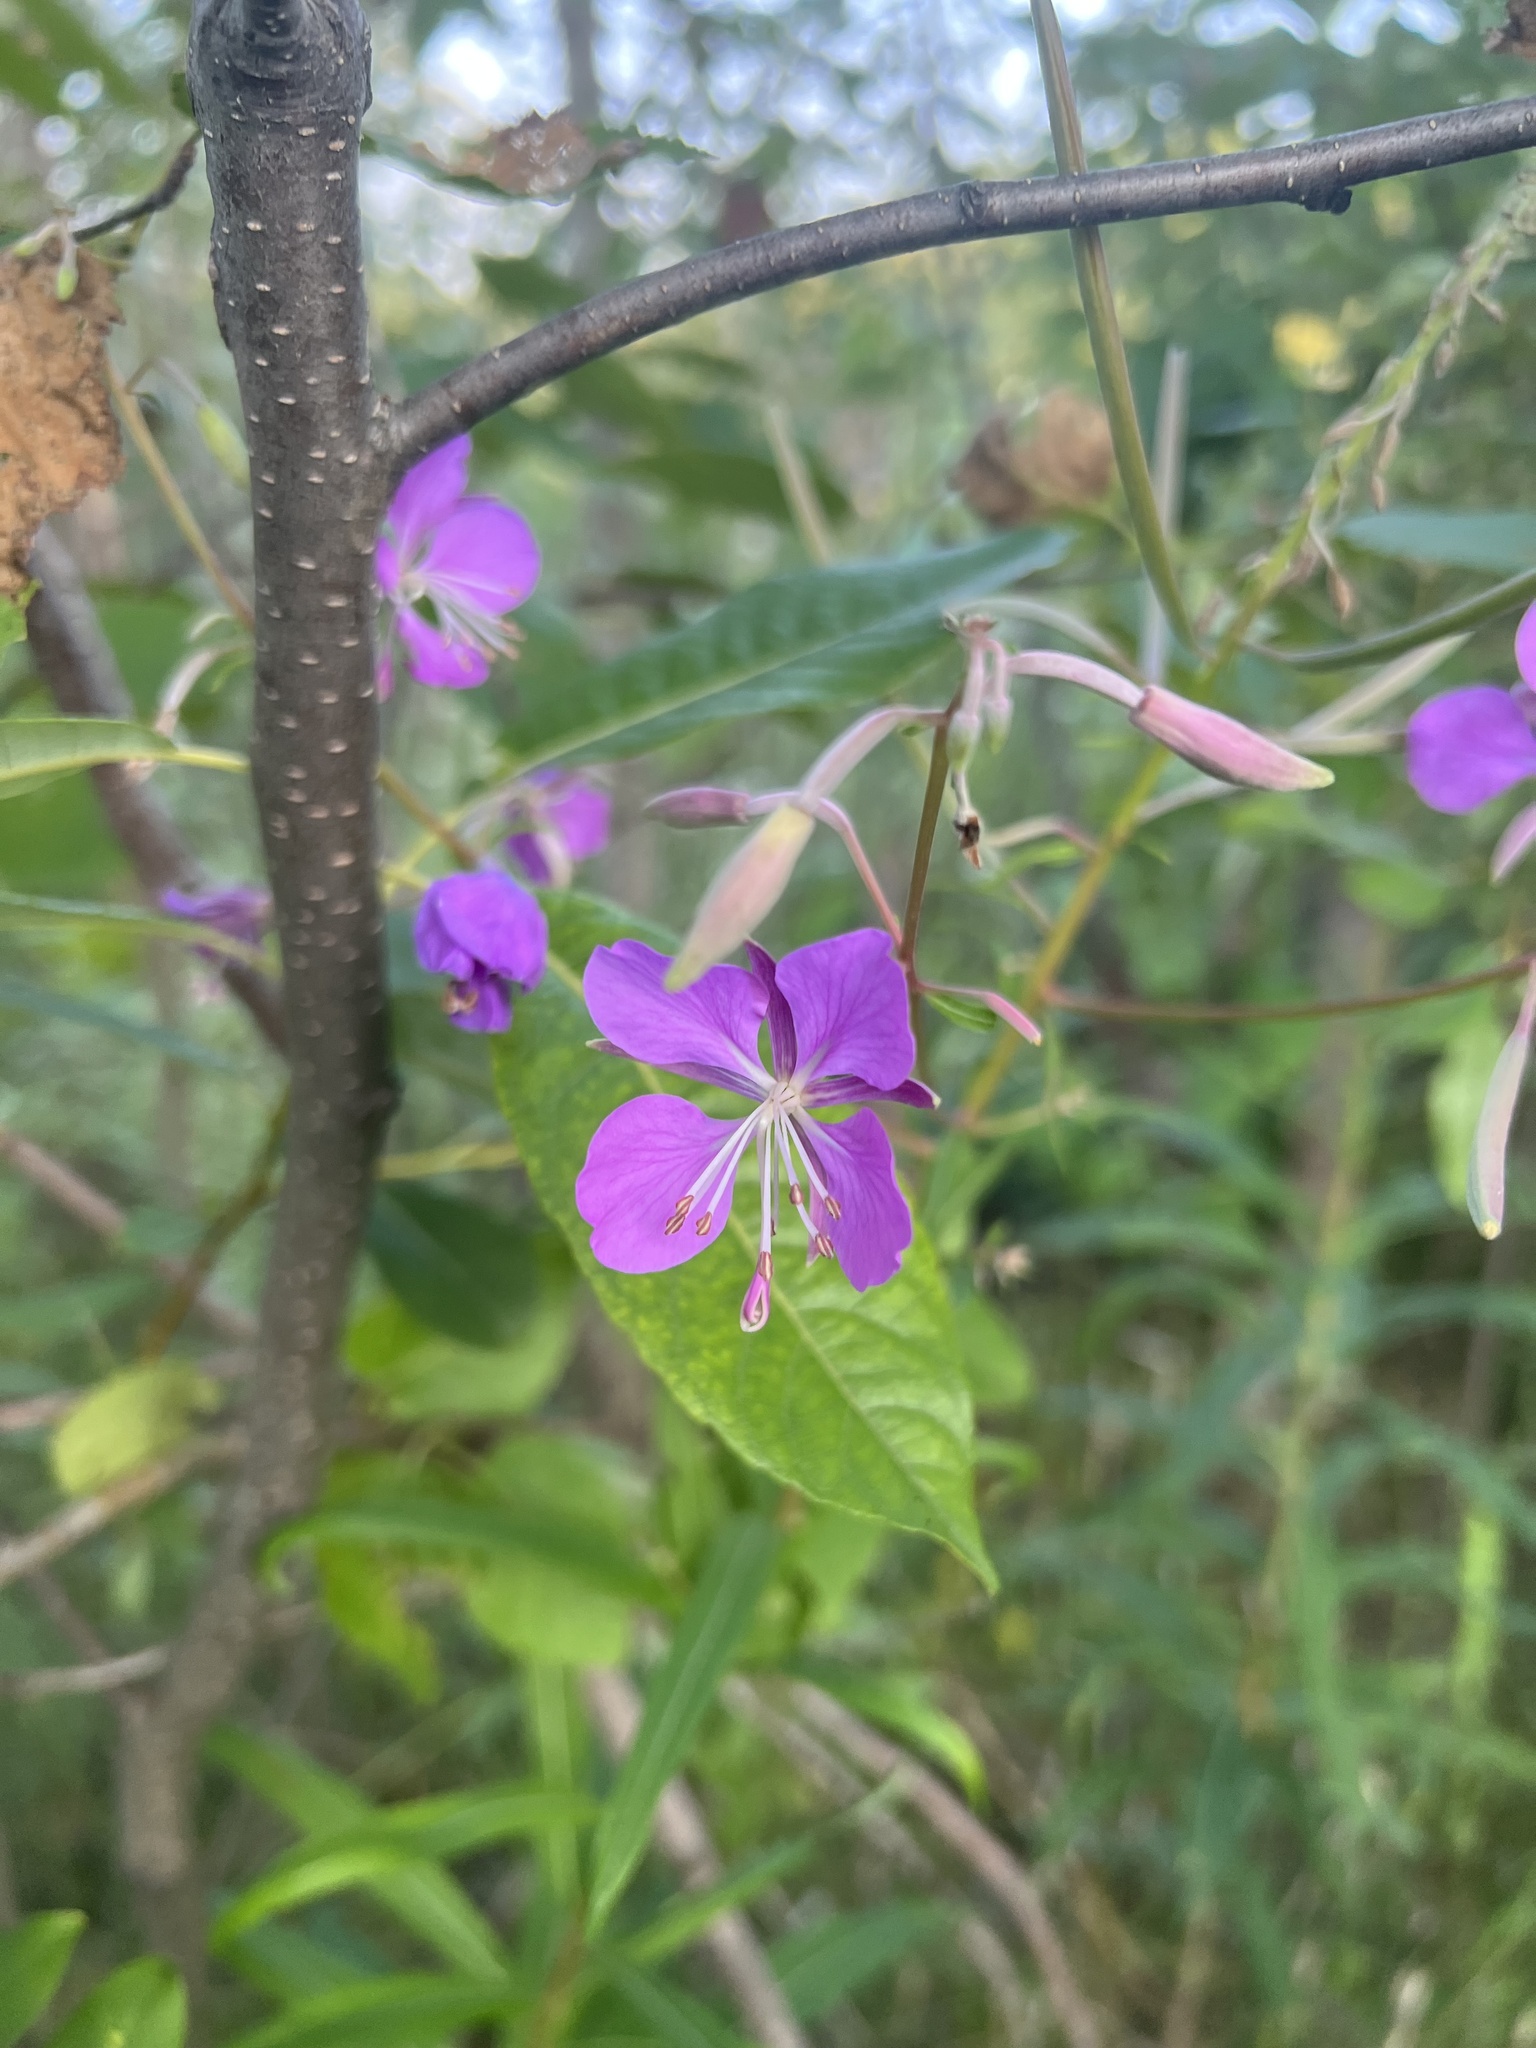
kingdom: Plantae
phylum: Tracheophyta
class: Magnoliopsida
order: Myrtales
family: Onagraceae
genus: Chamaenerion
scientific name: Chamaenerion angustifolium
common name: Fireweed
